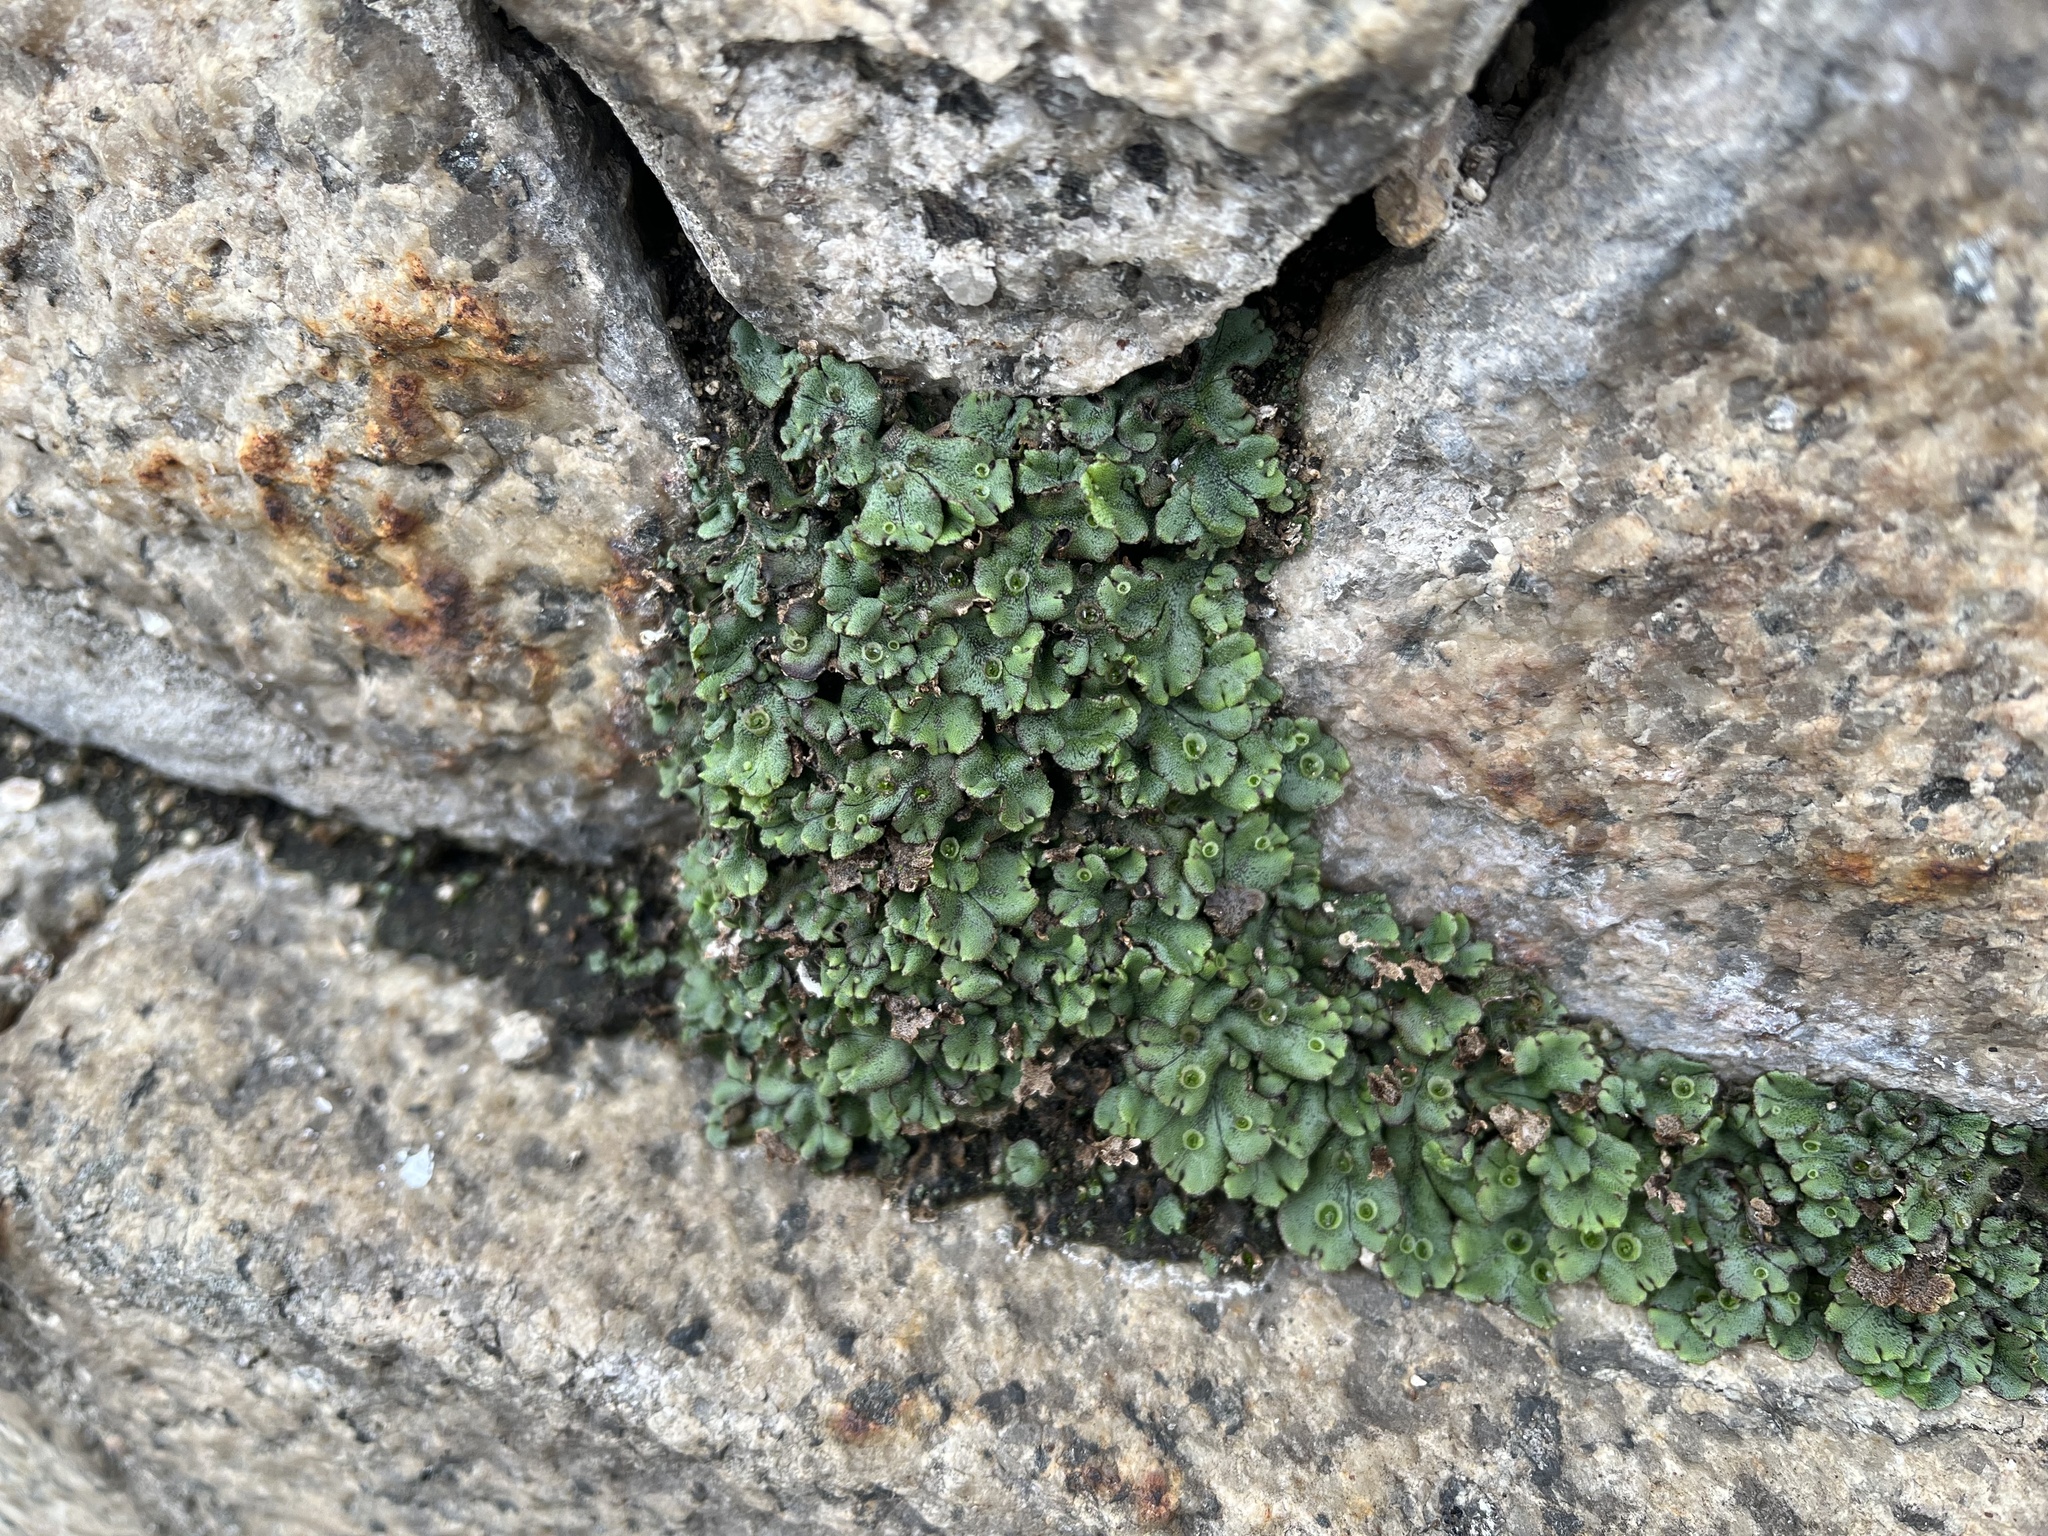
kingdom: Plantae
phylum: Marchantiophyta
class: Marchantiopsida
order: Marchantiales
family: Marchantiaceae
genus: Marchantia
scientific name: Marchantia polymorpha
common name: Common liverwort
